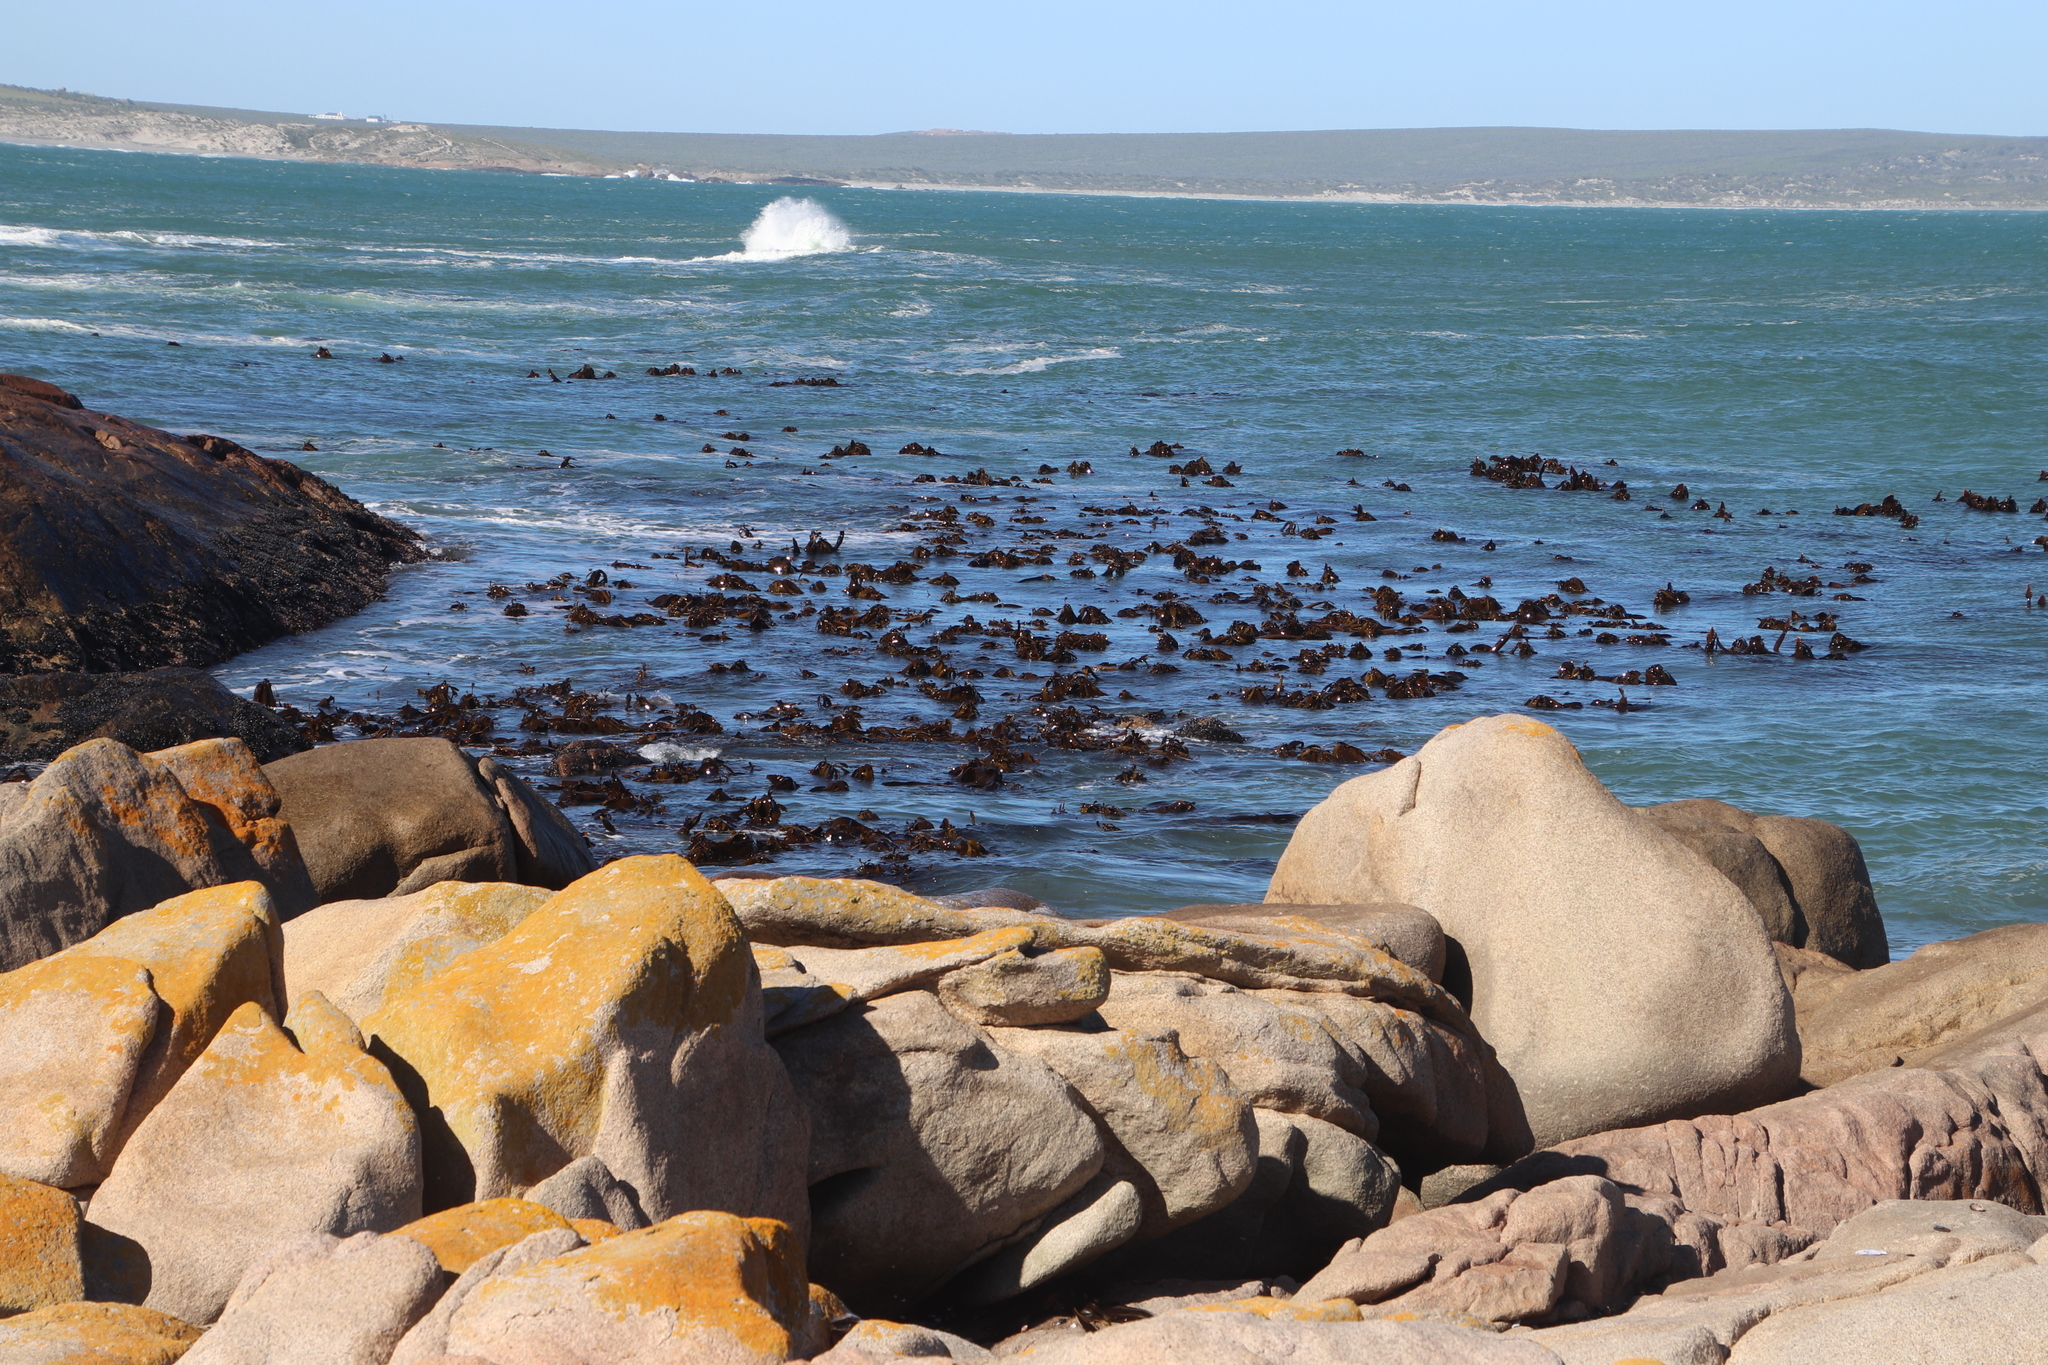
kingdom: Chromista
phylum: Ochrophyta
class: Phaeophyceae
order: Laminariales
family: Lessoniaceae
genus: Ecklonia
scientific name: Ecklonia
